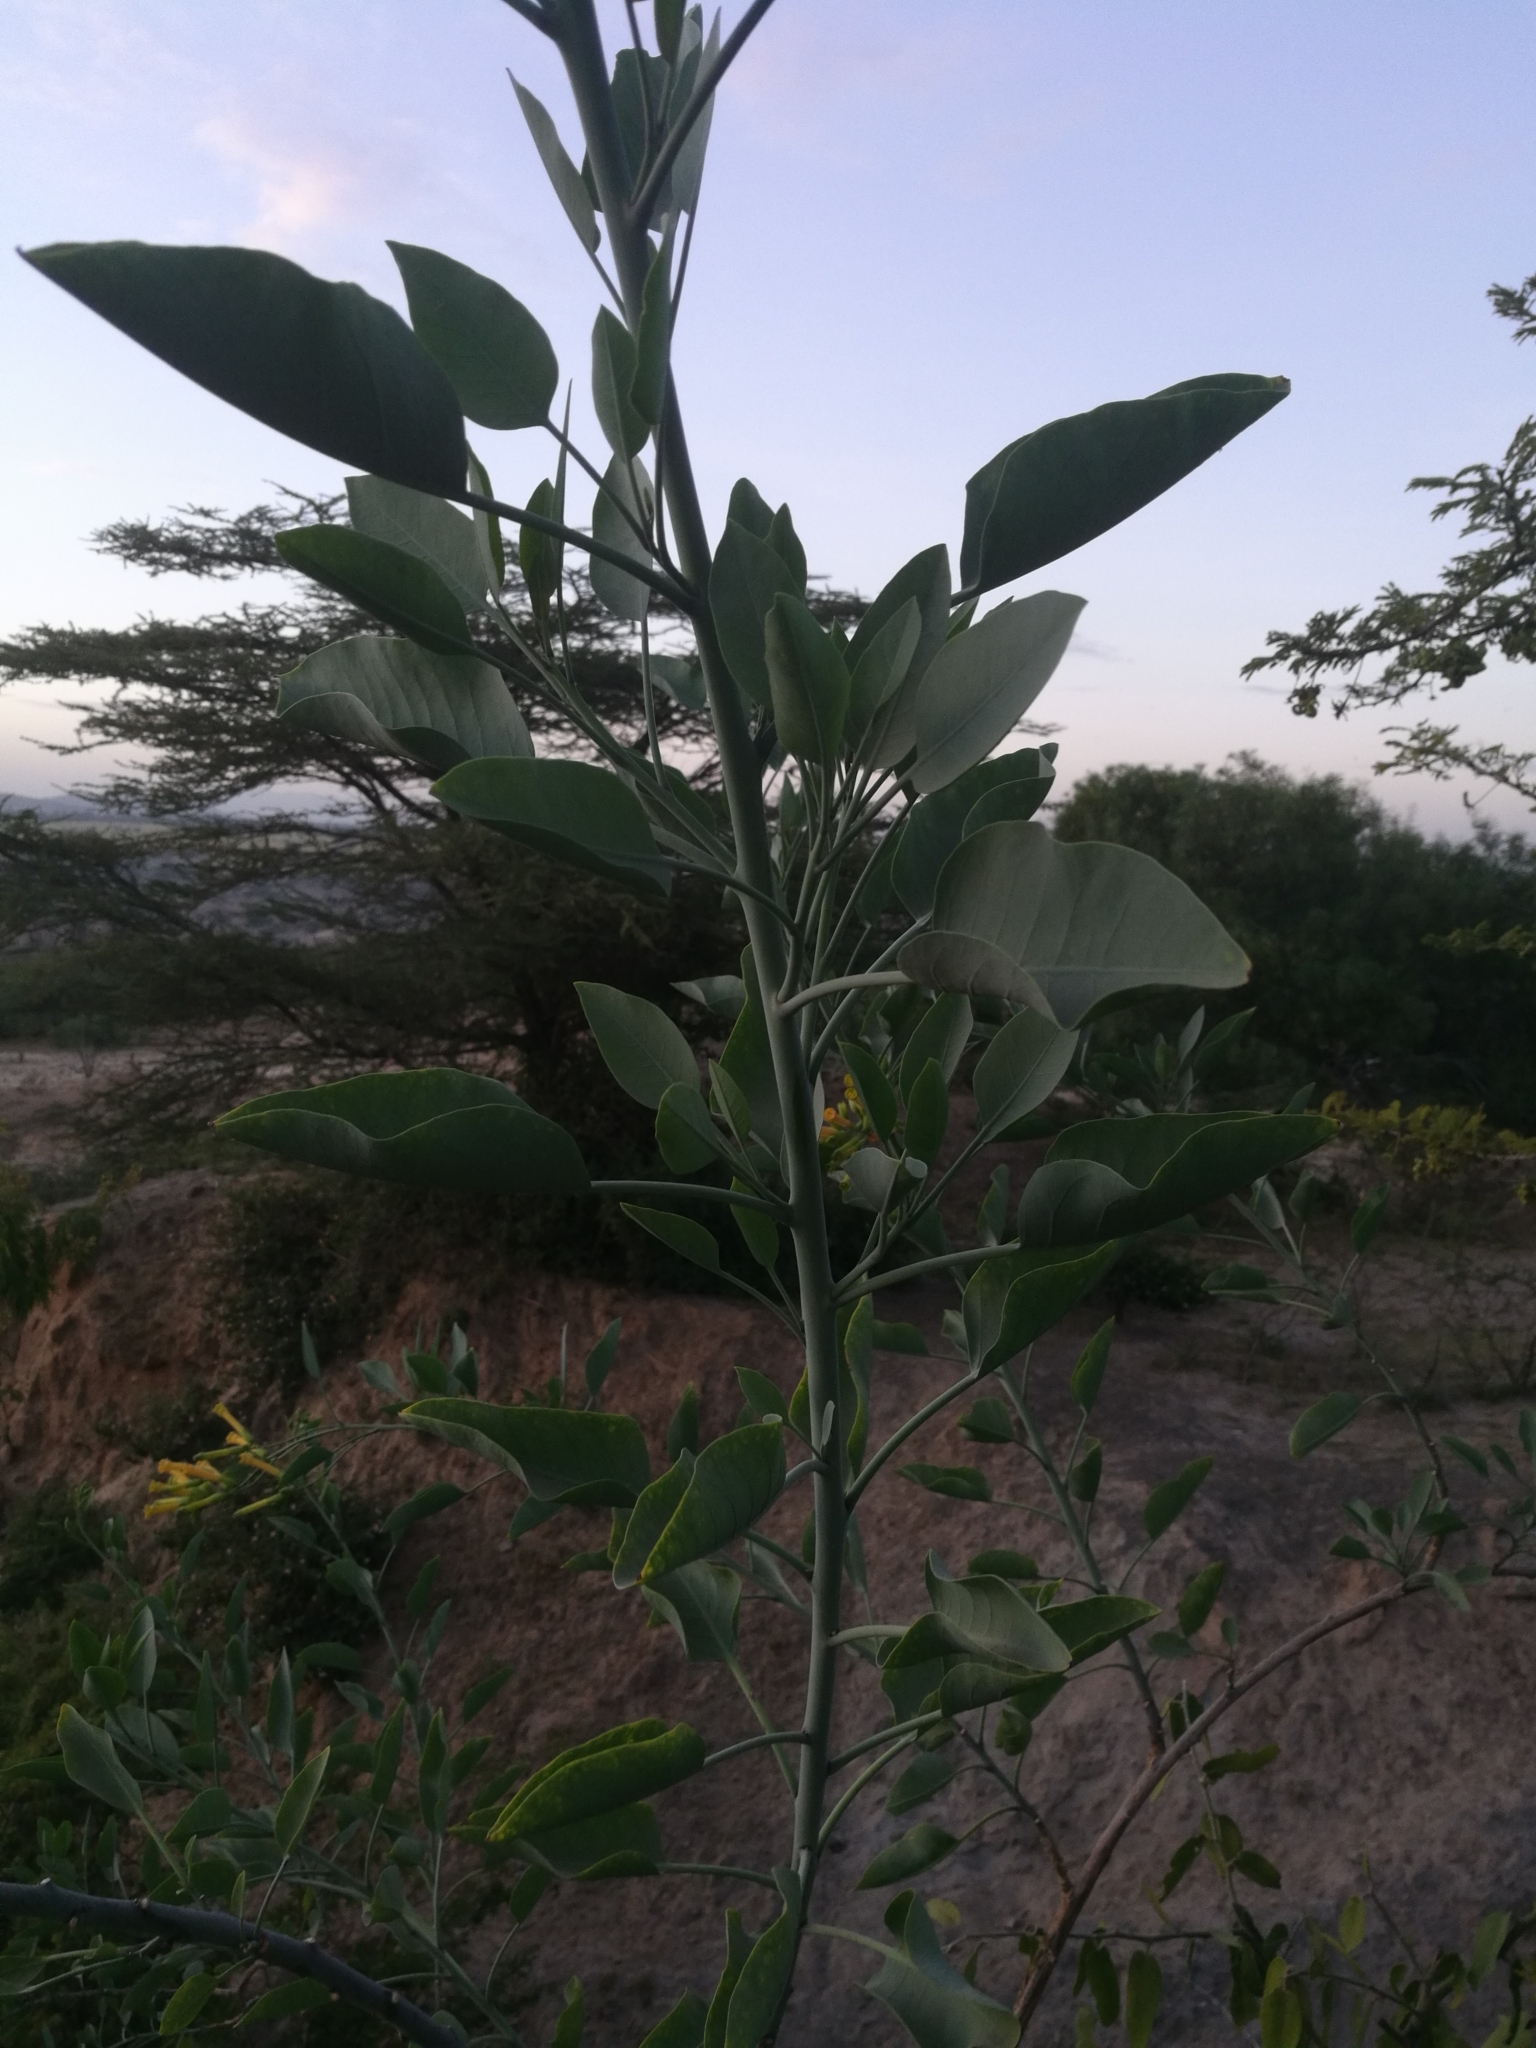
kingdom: Plantae
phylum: Tracheophyta
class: Magnoliopsida
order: Solanales
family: Solanaceae
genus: Nicotiana
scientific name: Nicotiana glauca
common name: Tree tobacco
